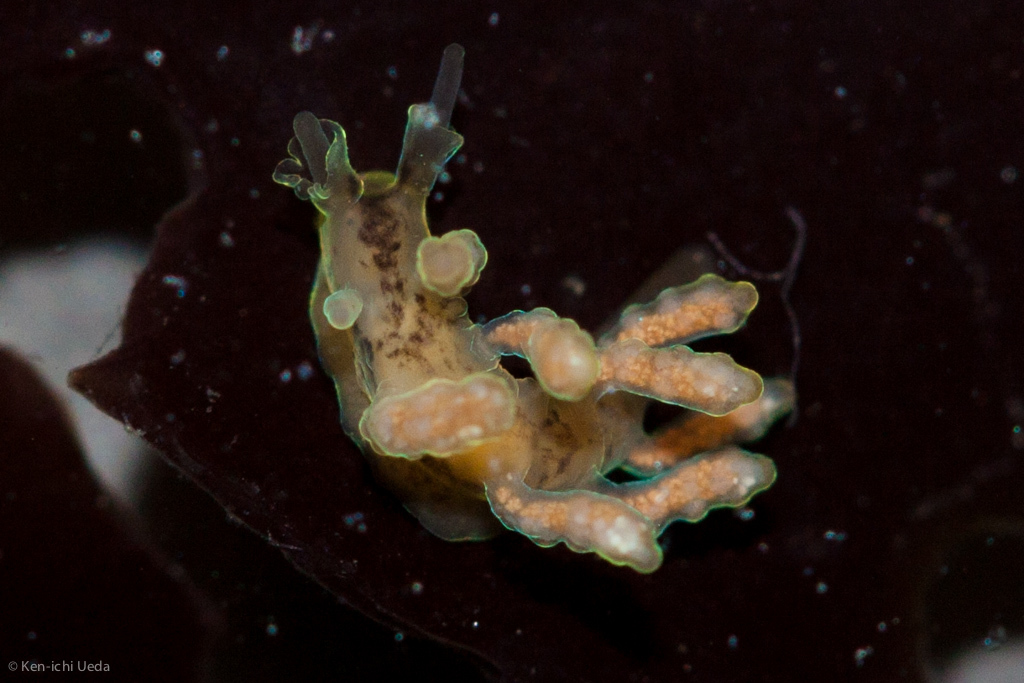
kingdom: Animalia
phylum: Mollusca
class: Gastropoda
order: Nudibranchia
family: Dotidae
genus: Doto
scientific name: Doto columbiana
